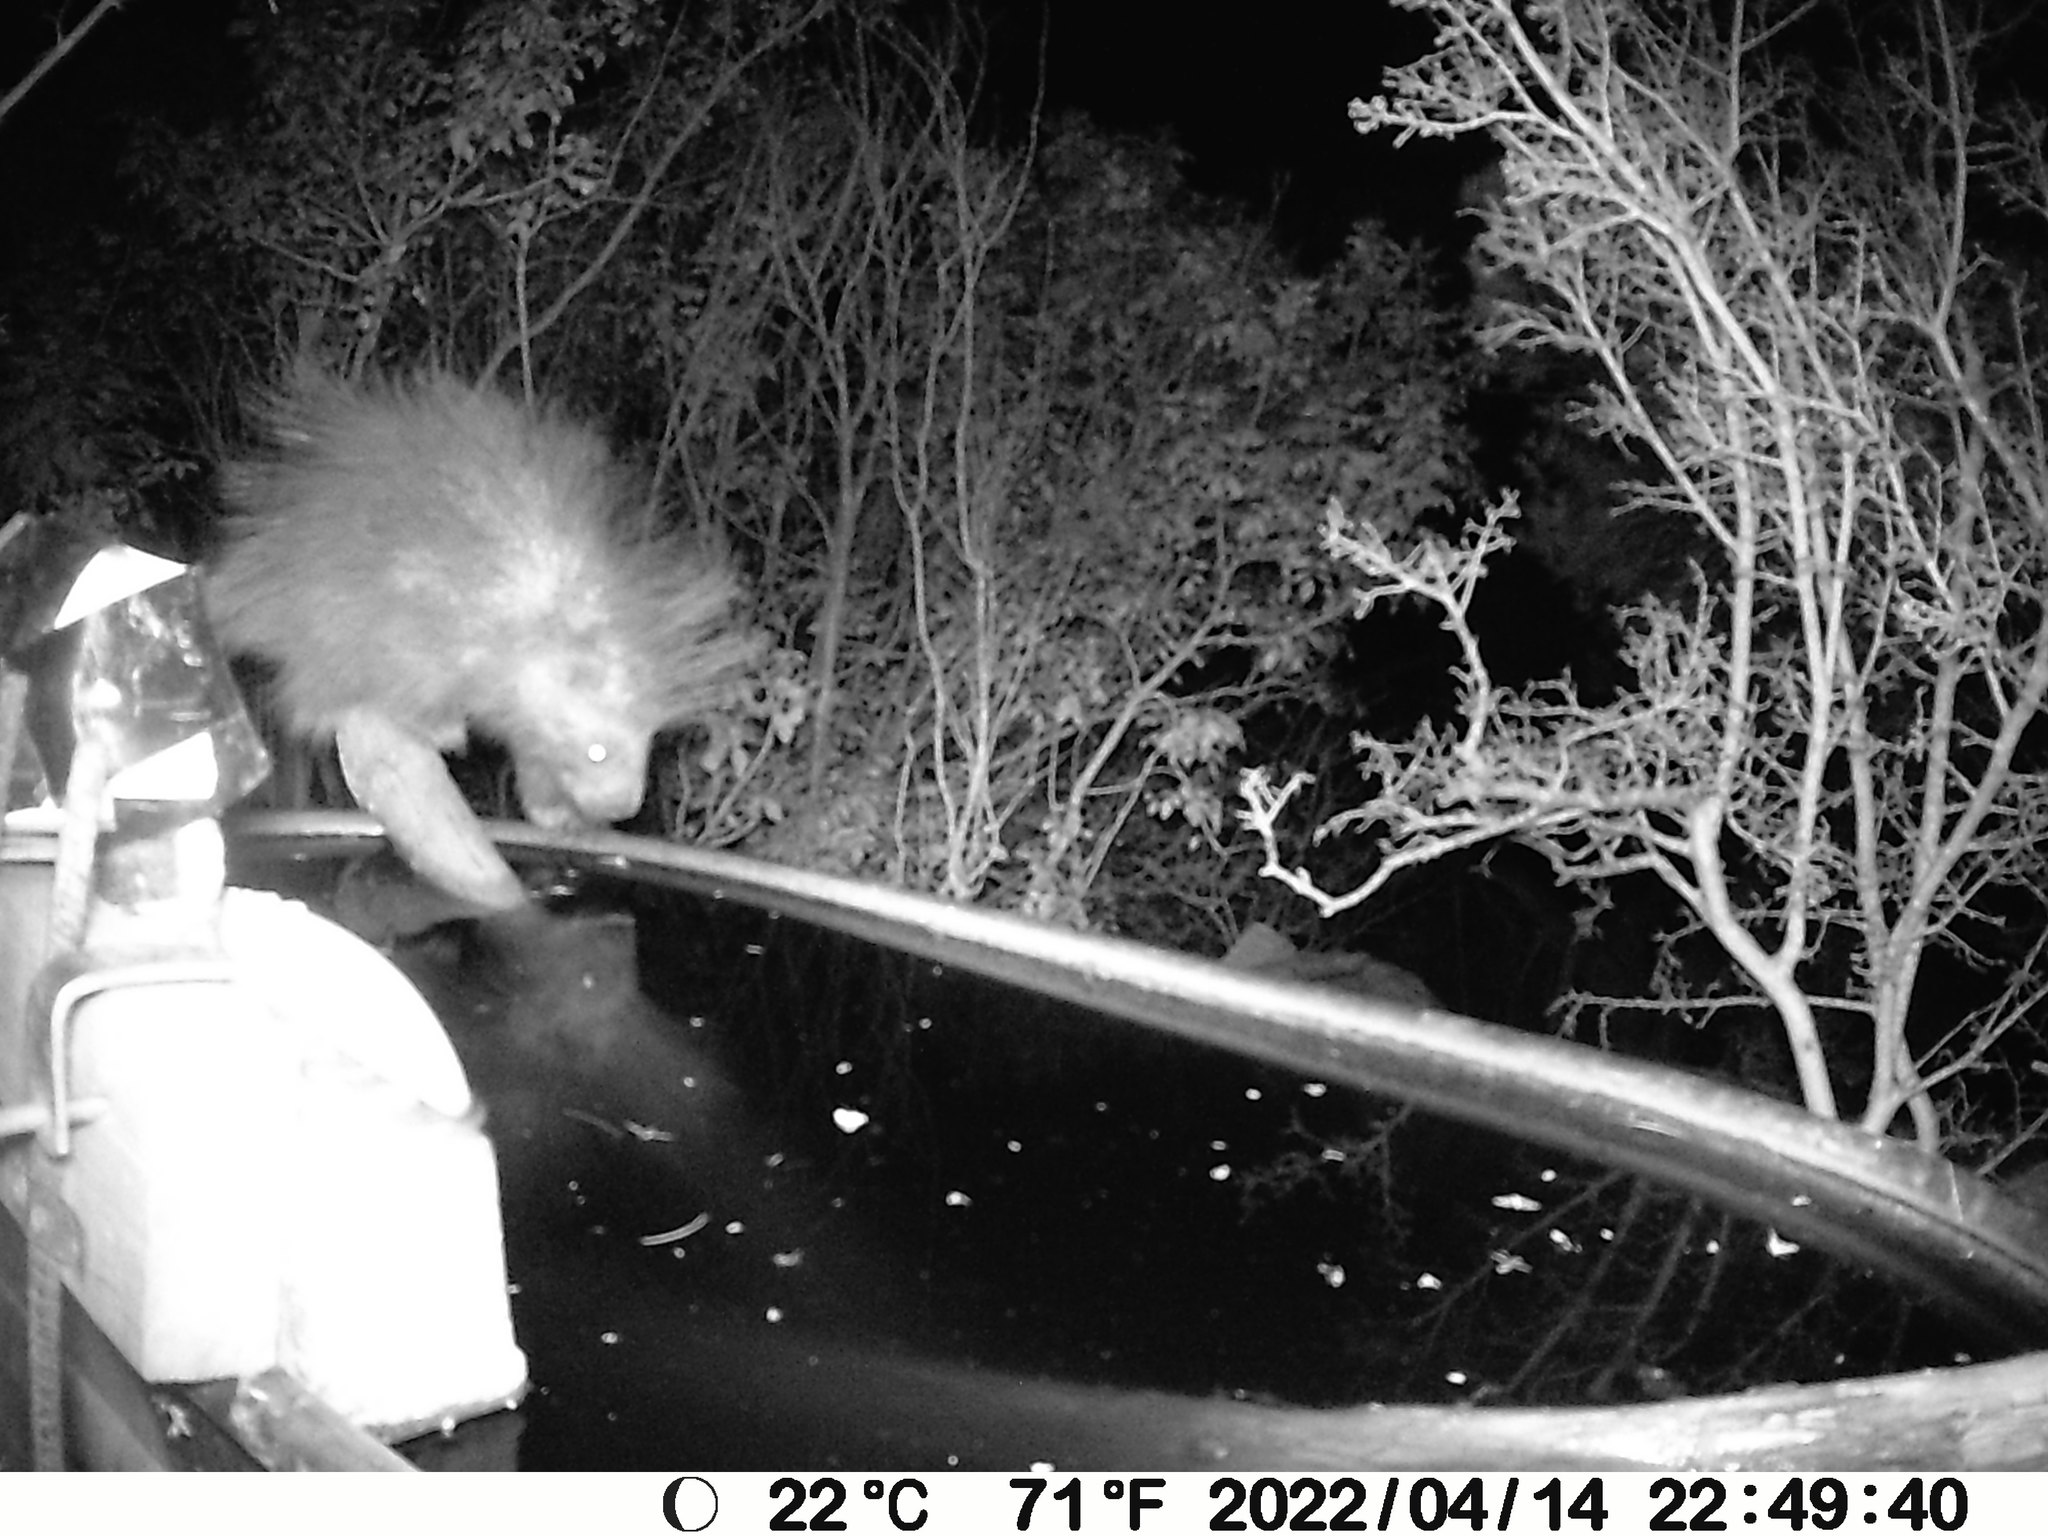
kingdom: Animalia
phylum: Chordata
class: Mammalia
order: Rodentia
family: Erethizontidae
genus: Erethizon
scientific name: Erethizon dorsatus
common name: North american porcupine
